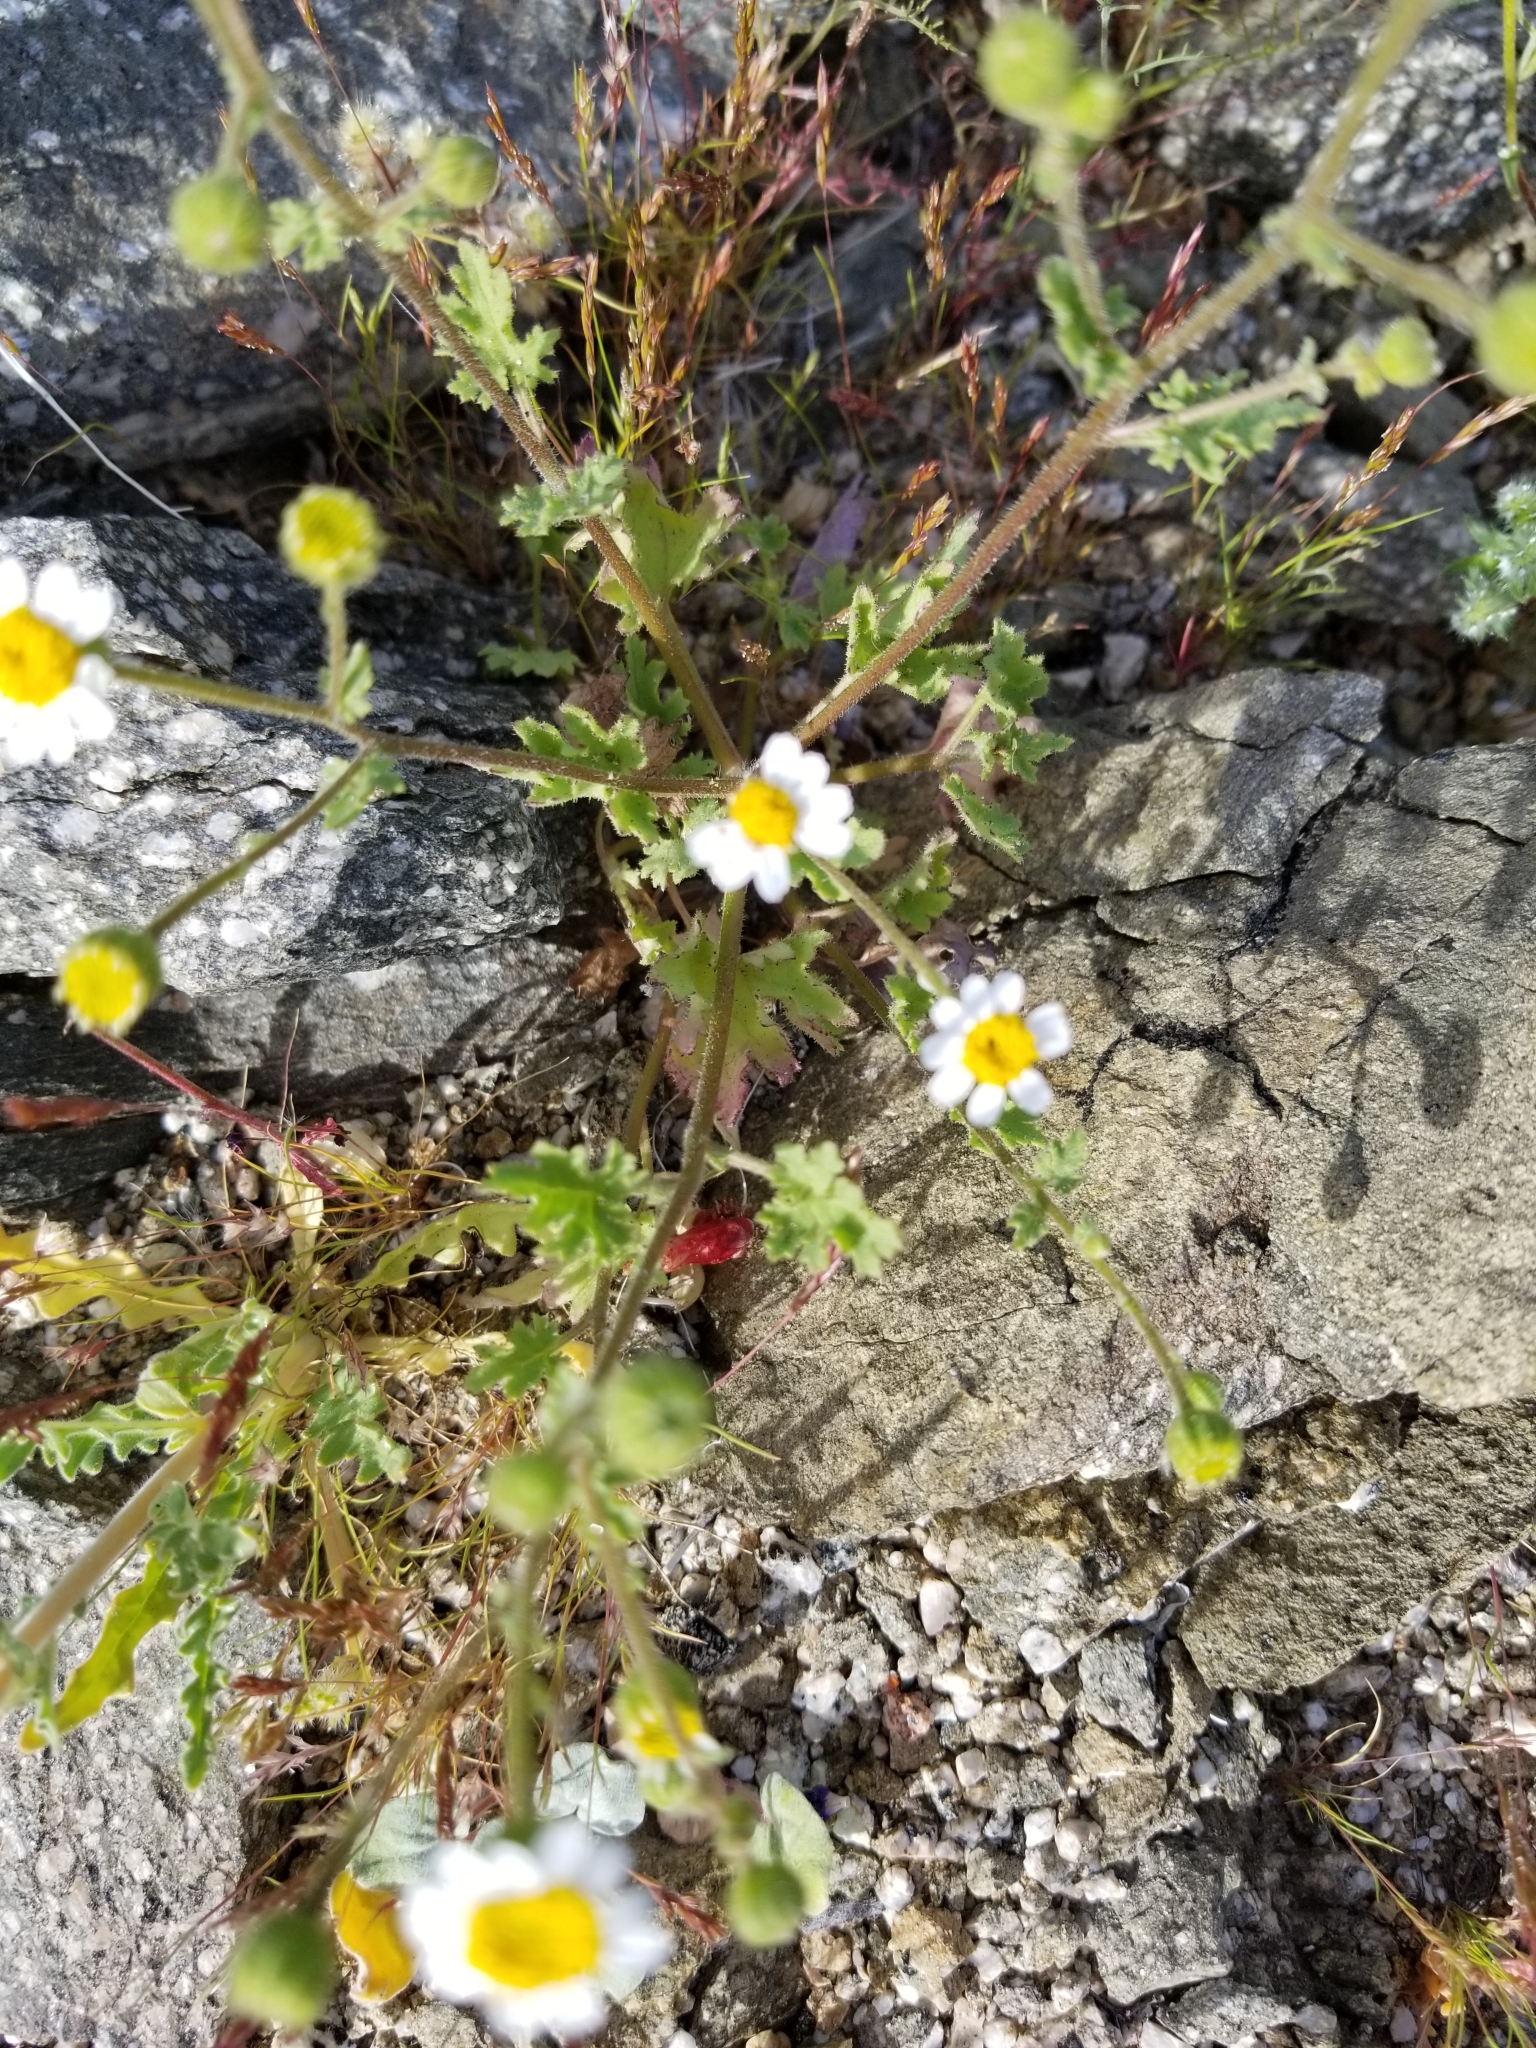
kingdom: Plantae
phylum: Tracheophyta
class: Magnoliopsida
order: Asterales
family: Asteraceae
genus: Laphamia
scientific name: Laphamia emoryi
